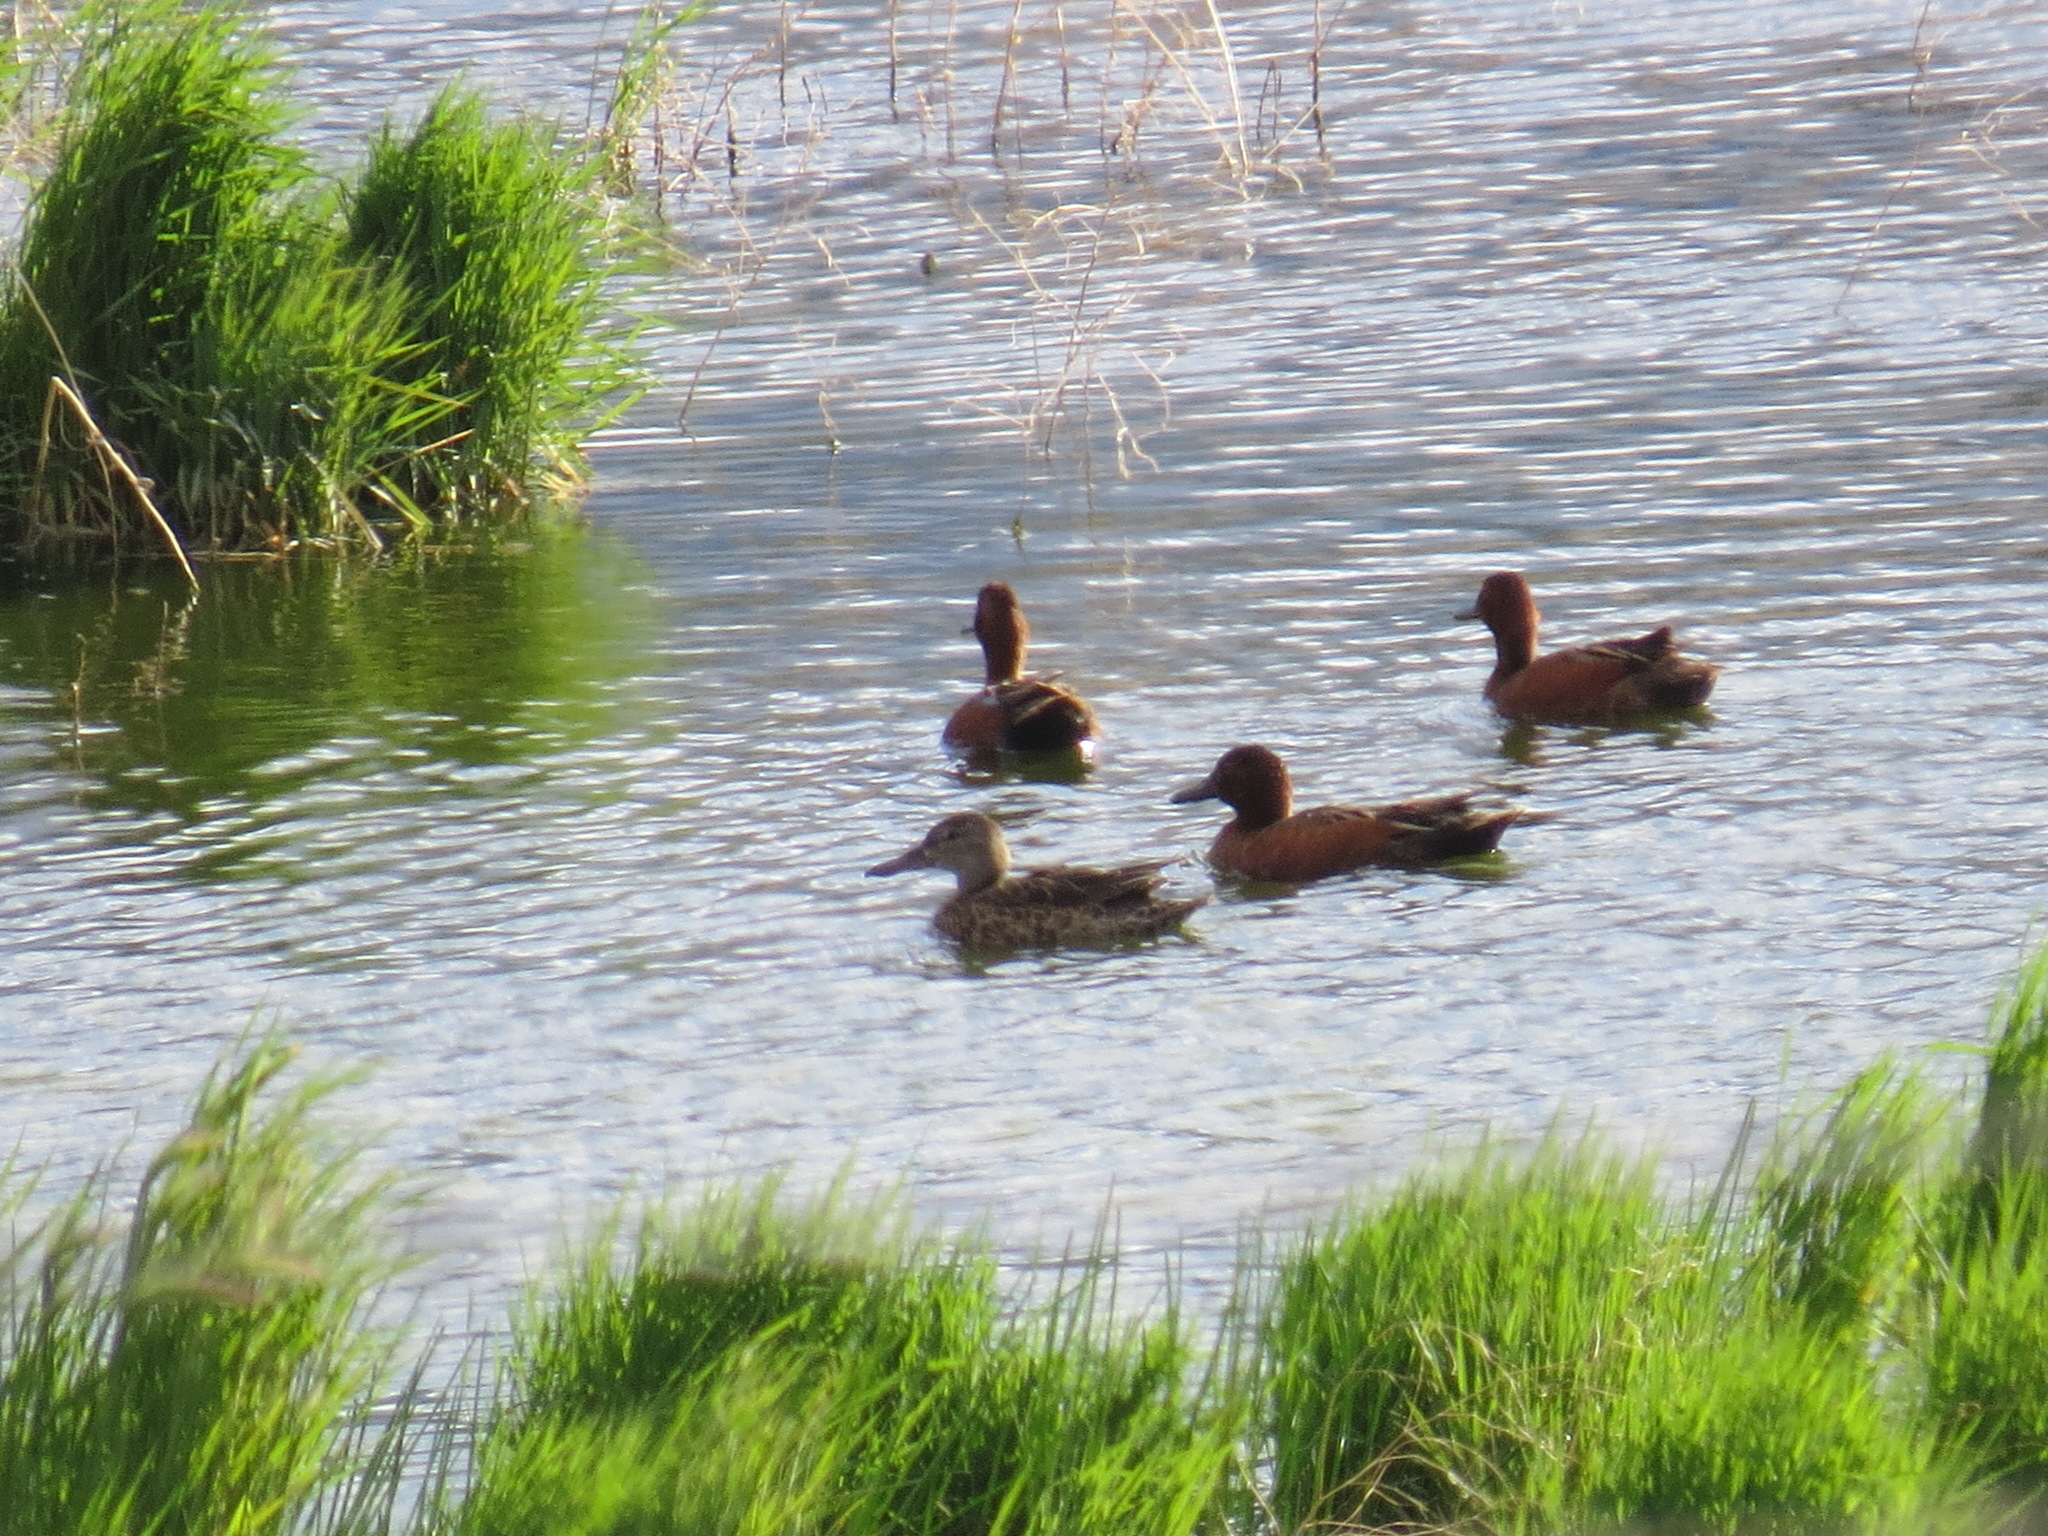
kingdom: Animalia
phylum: Chordata
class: Aves
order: Anseriformes
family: Anatidae
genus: Spatula
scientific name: Spatula cyanoptera
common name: Cinnamon teal
